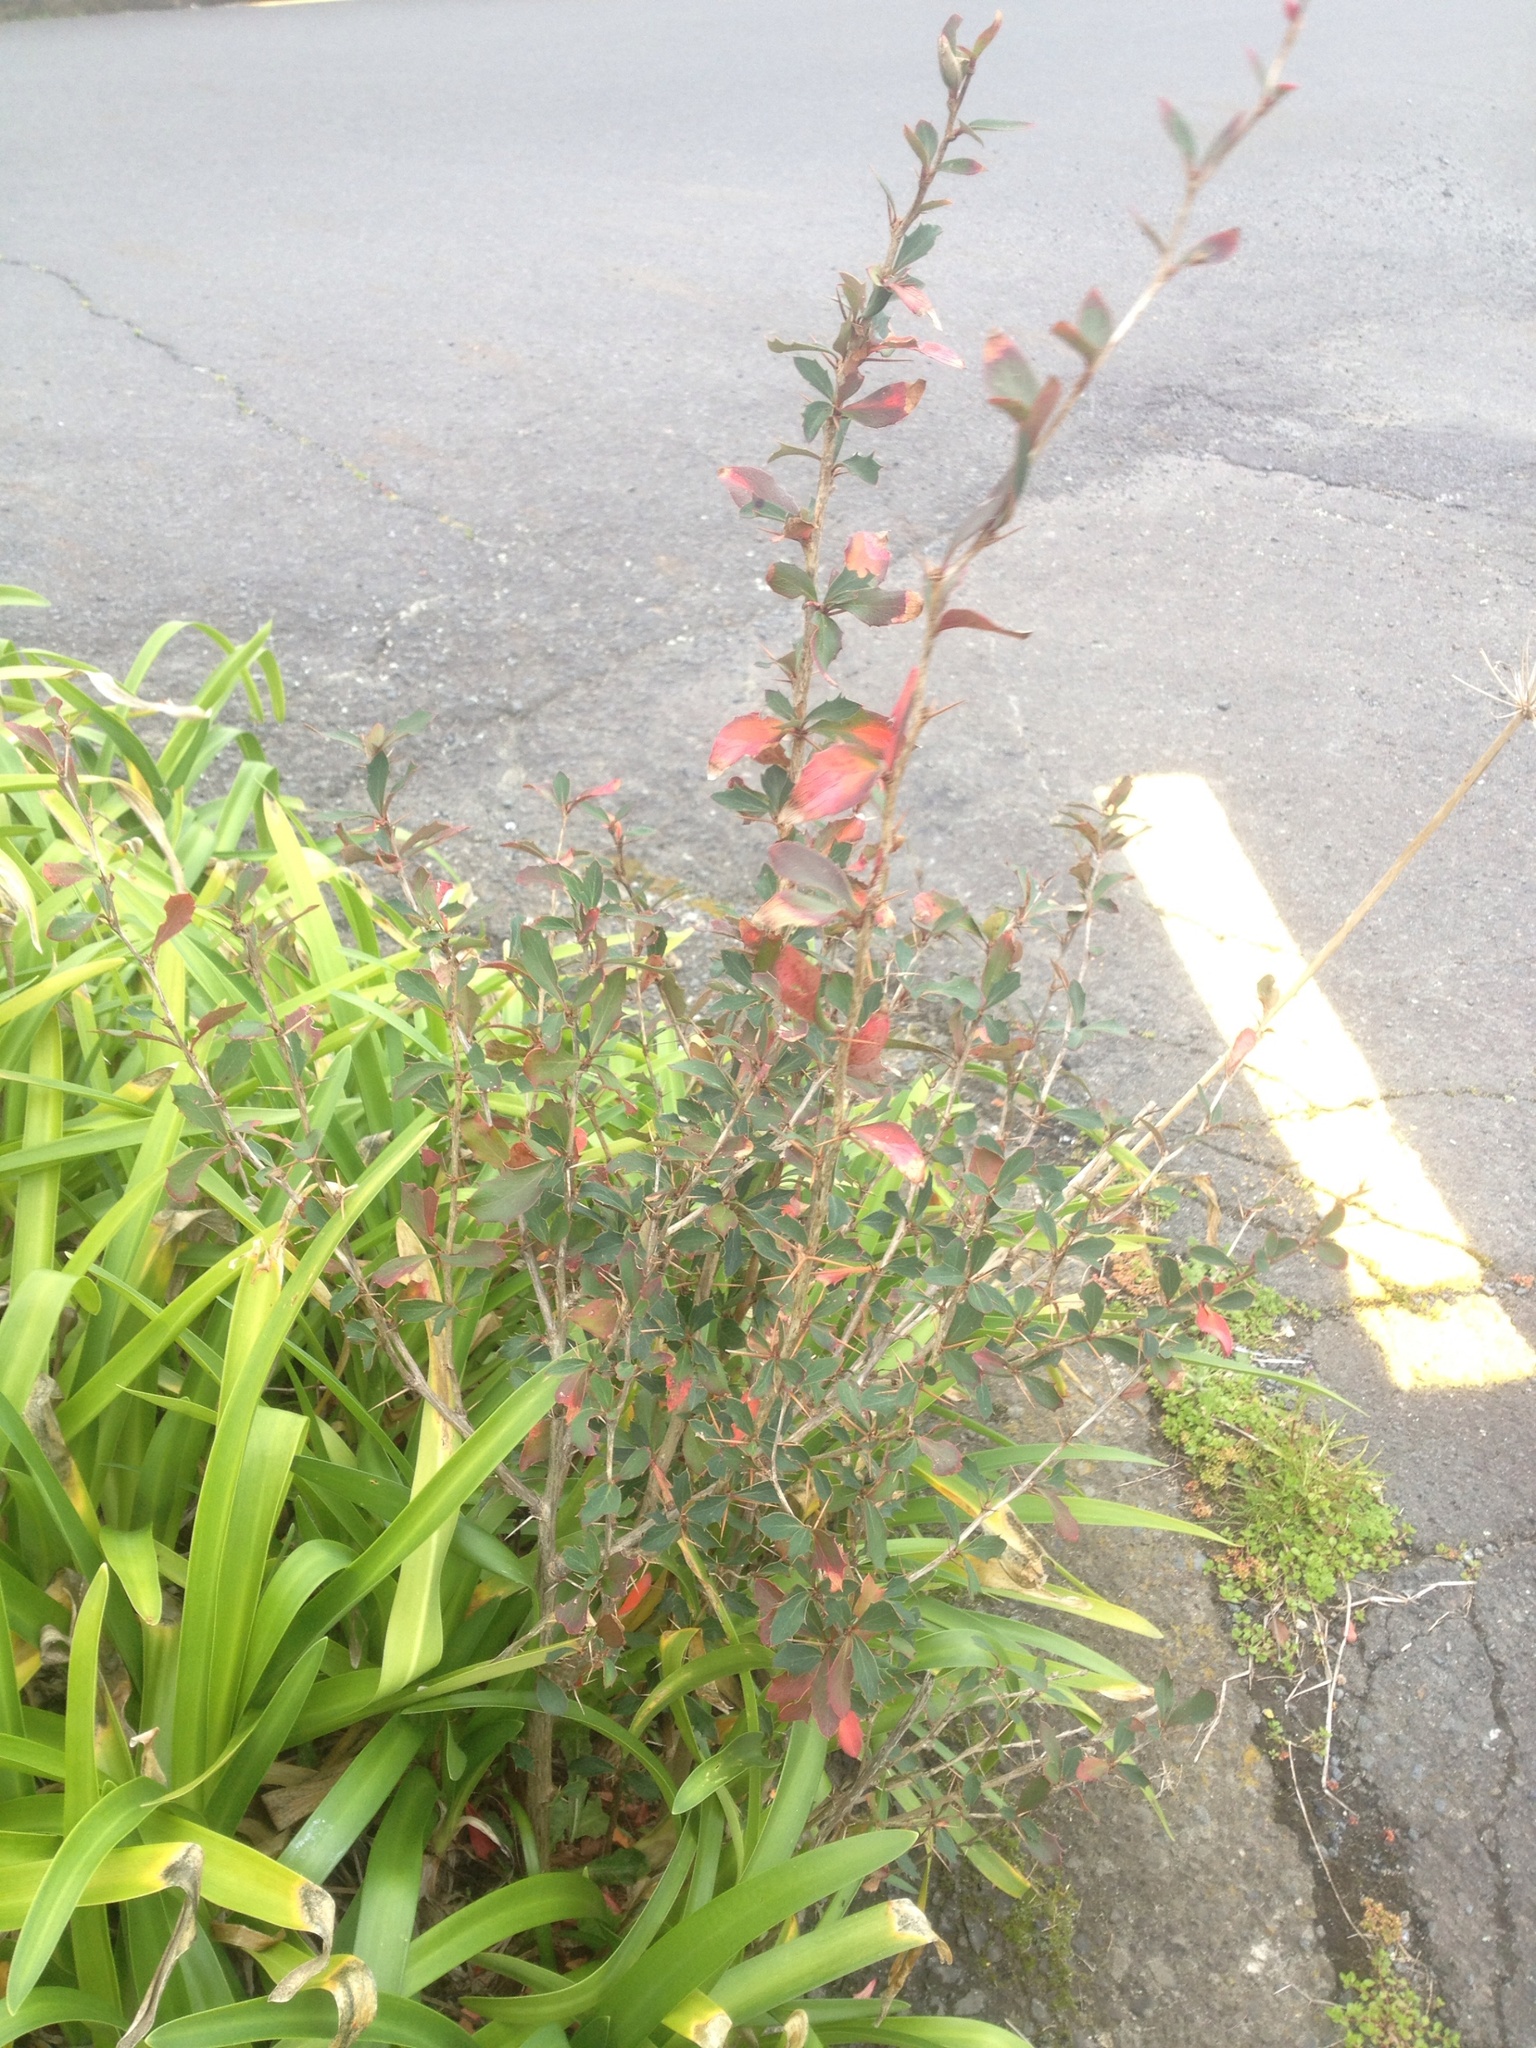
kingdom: Plantae
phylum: Tracheophyta
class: Magnoliopsida
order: Ranunculales
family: Berberidaceae
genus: Berberis
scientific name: Berberis glaucocarpa
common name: Great barberry
